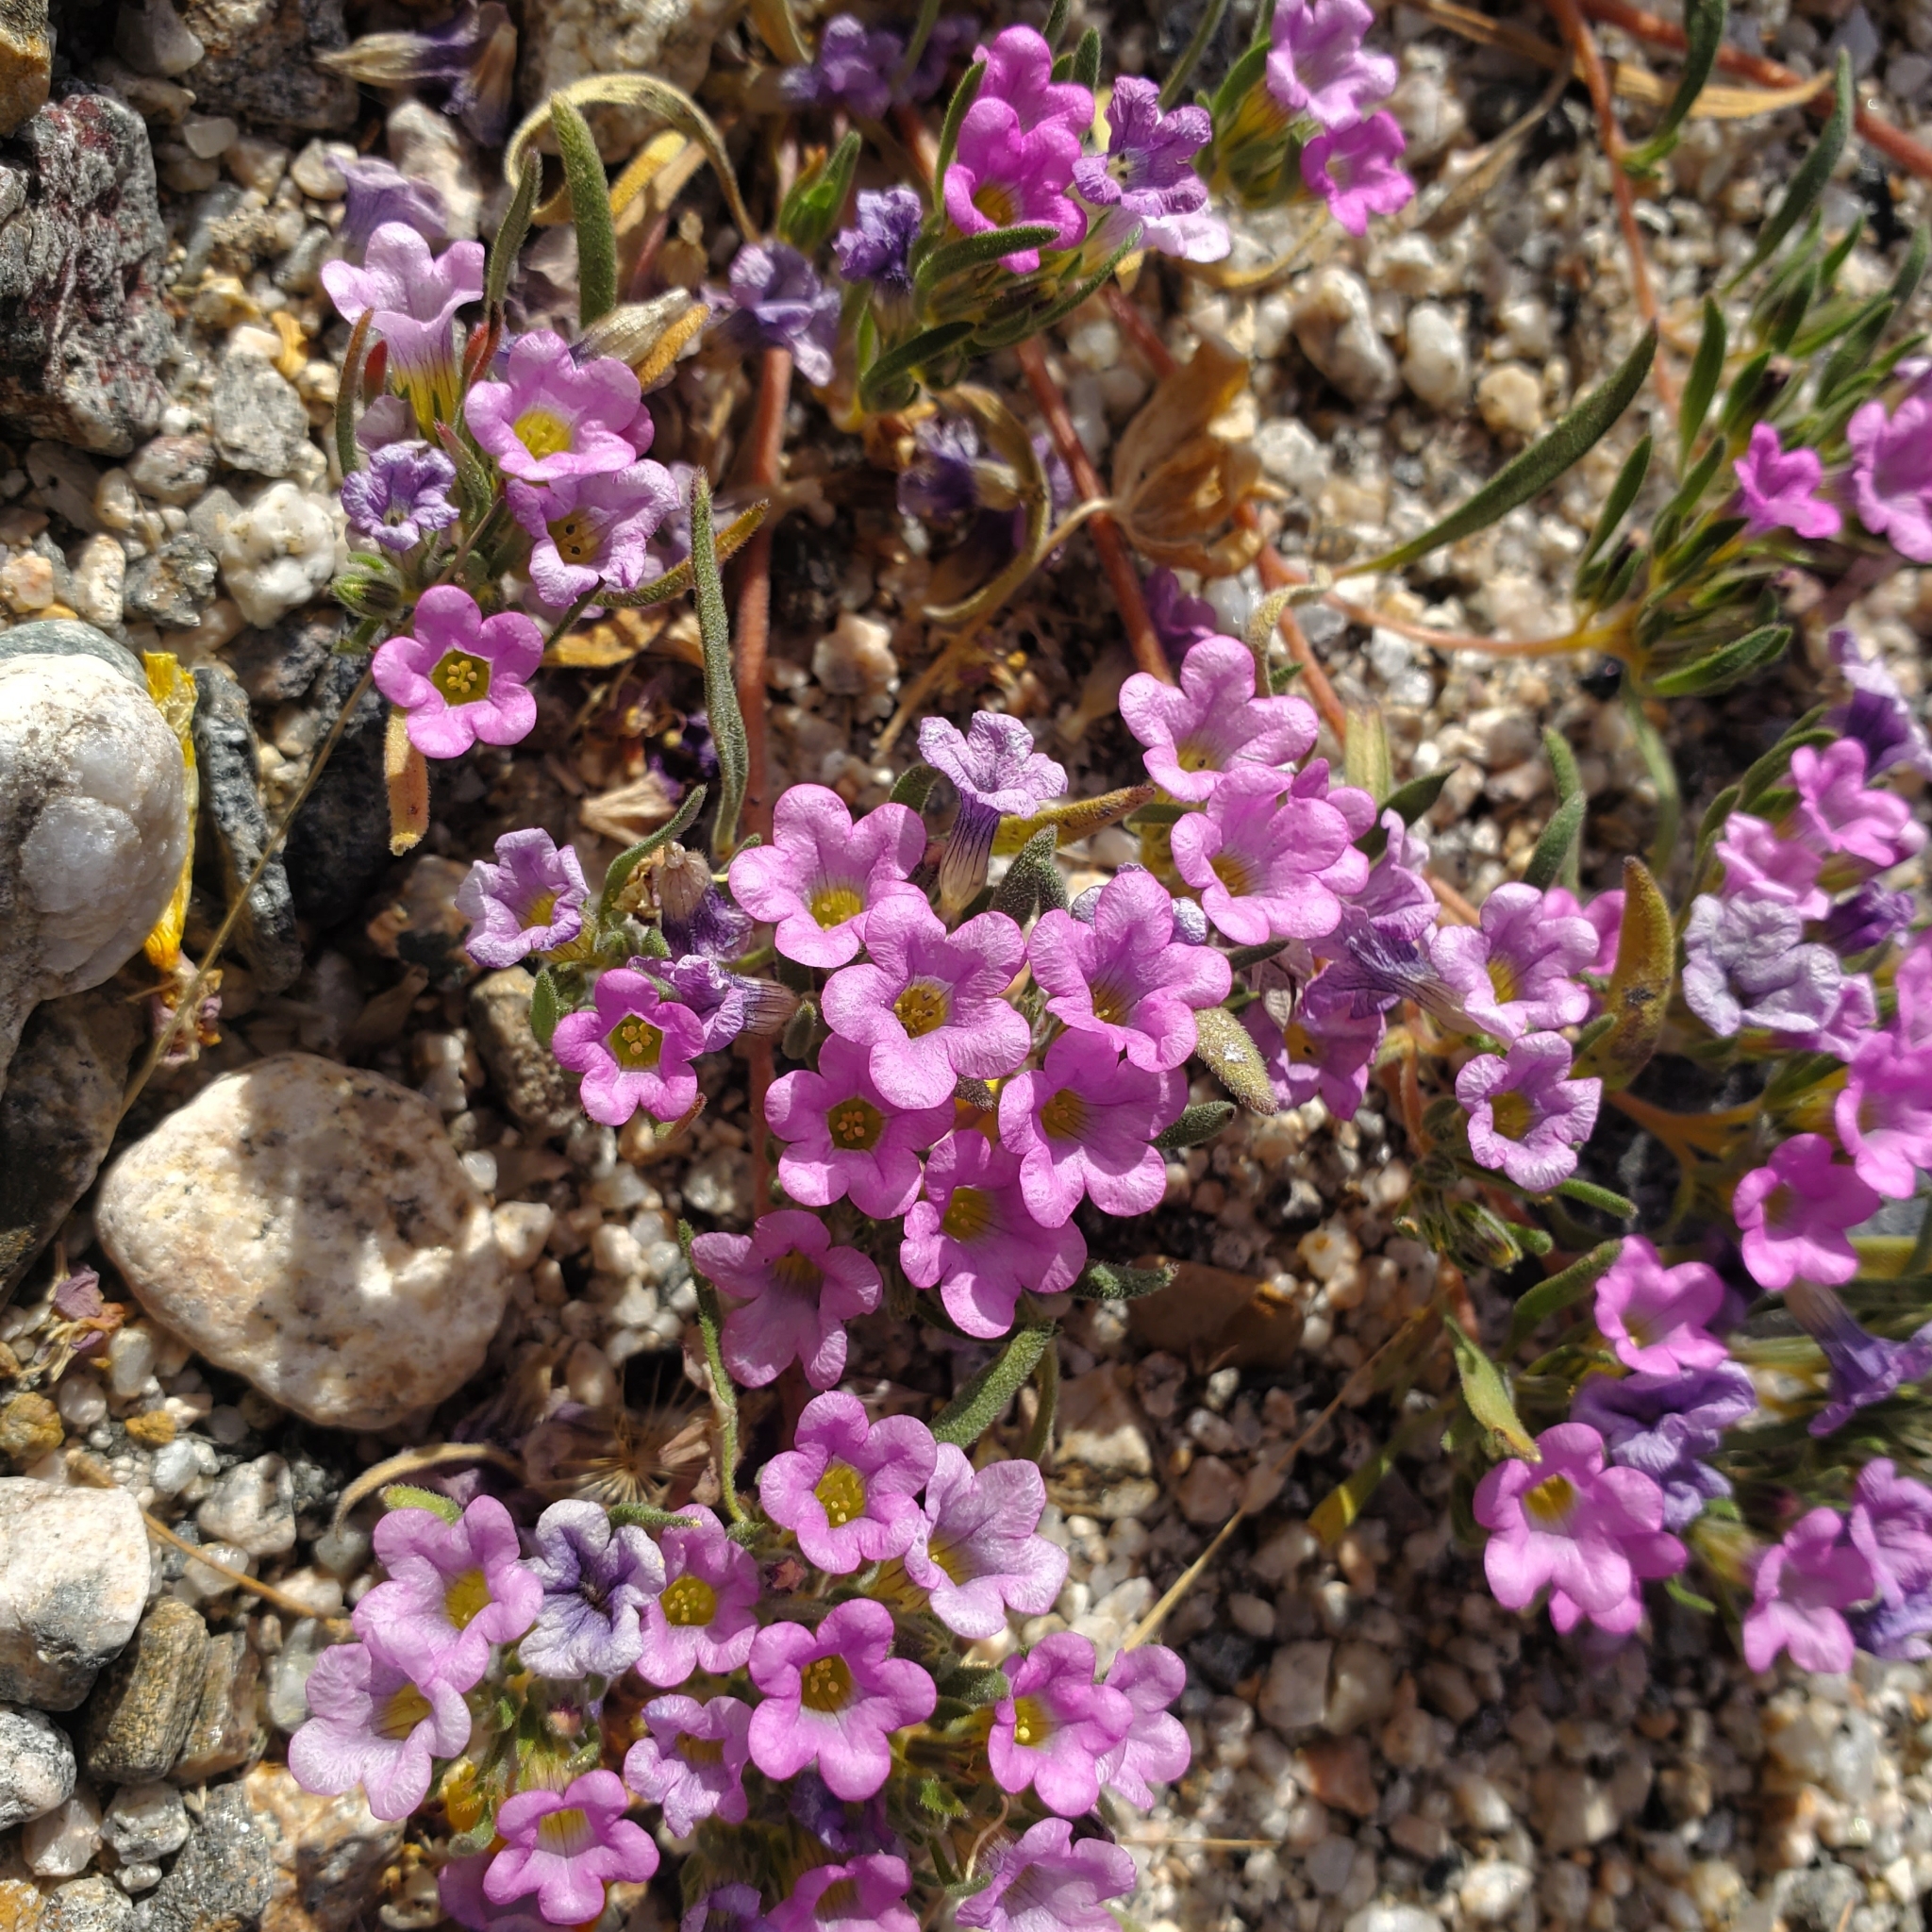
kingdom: Plantae
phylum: Tracheophyta
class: Magnoliopsida
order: Boraginales
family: Namaceae
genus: Nama
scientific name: Nama demissa
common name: Leafy nama
